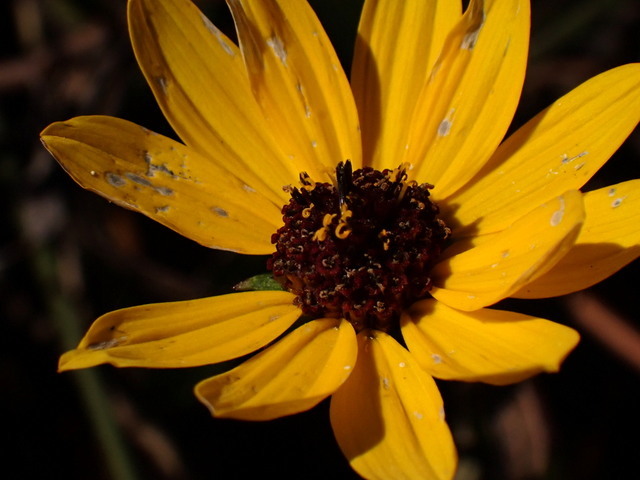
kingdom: Plantae
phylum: Tracheophyta
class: Magnoliopsida
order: Asterales
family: Asteraceae
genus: Helianthus
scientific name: Helianthus angustifolius
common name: Swamp sunflower
